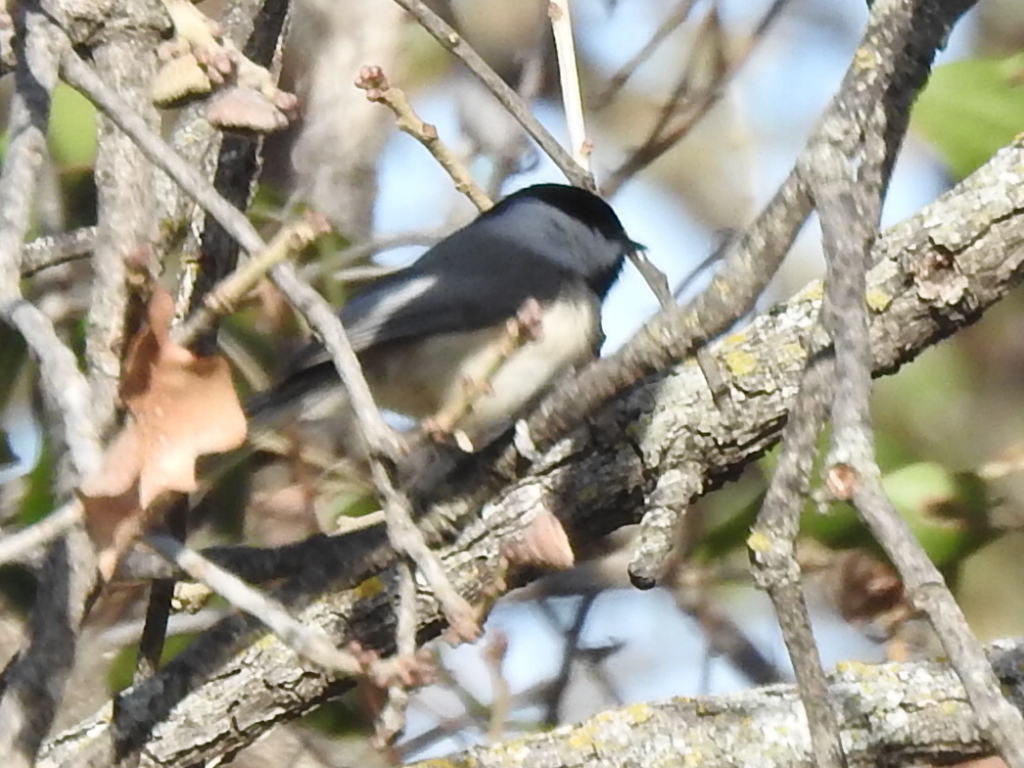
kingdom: Animalia
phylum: Chordata
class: Aves
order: Passeriformes
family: Paridae
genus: Poecile
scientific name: Poecile carolinensis
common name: Carolina chickadee
